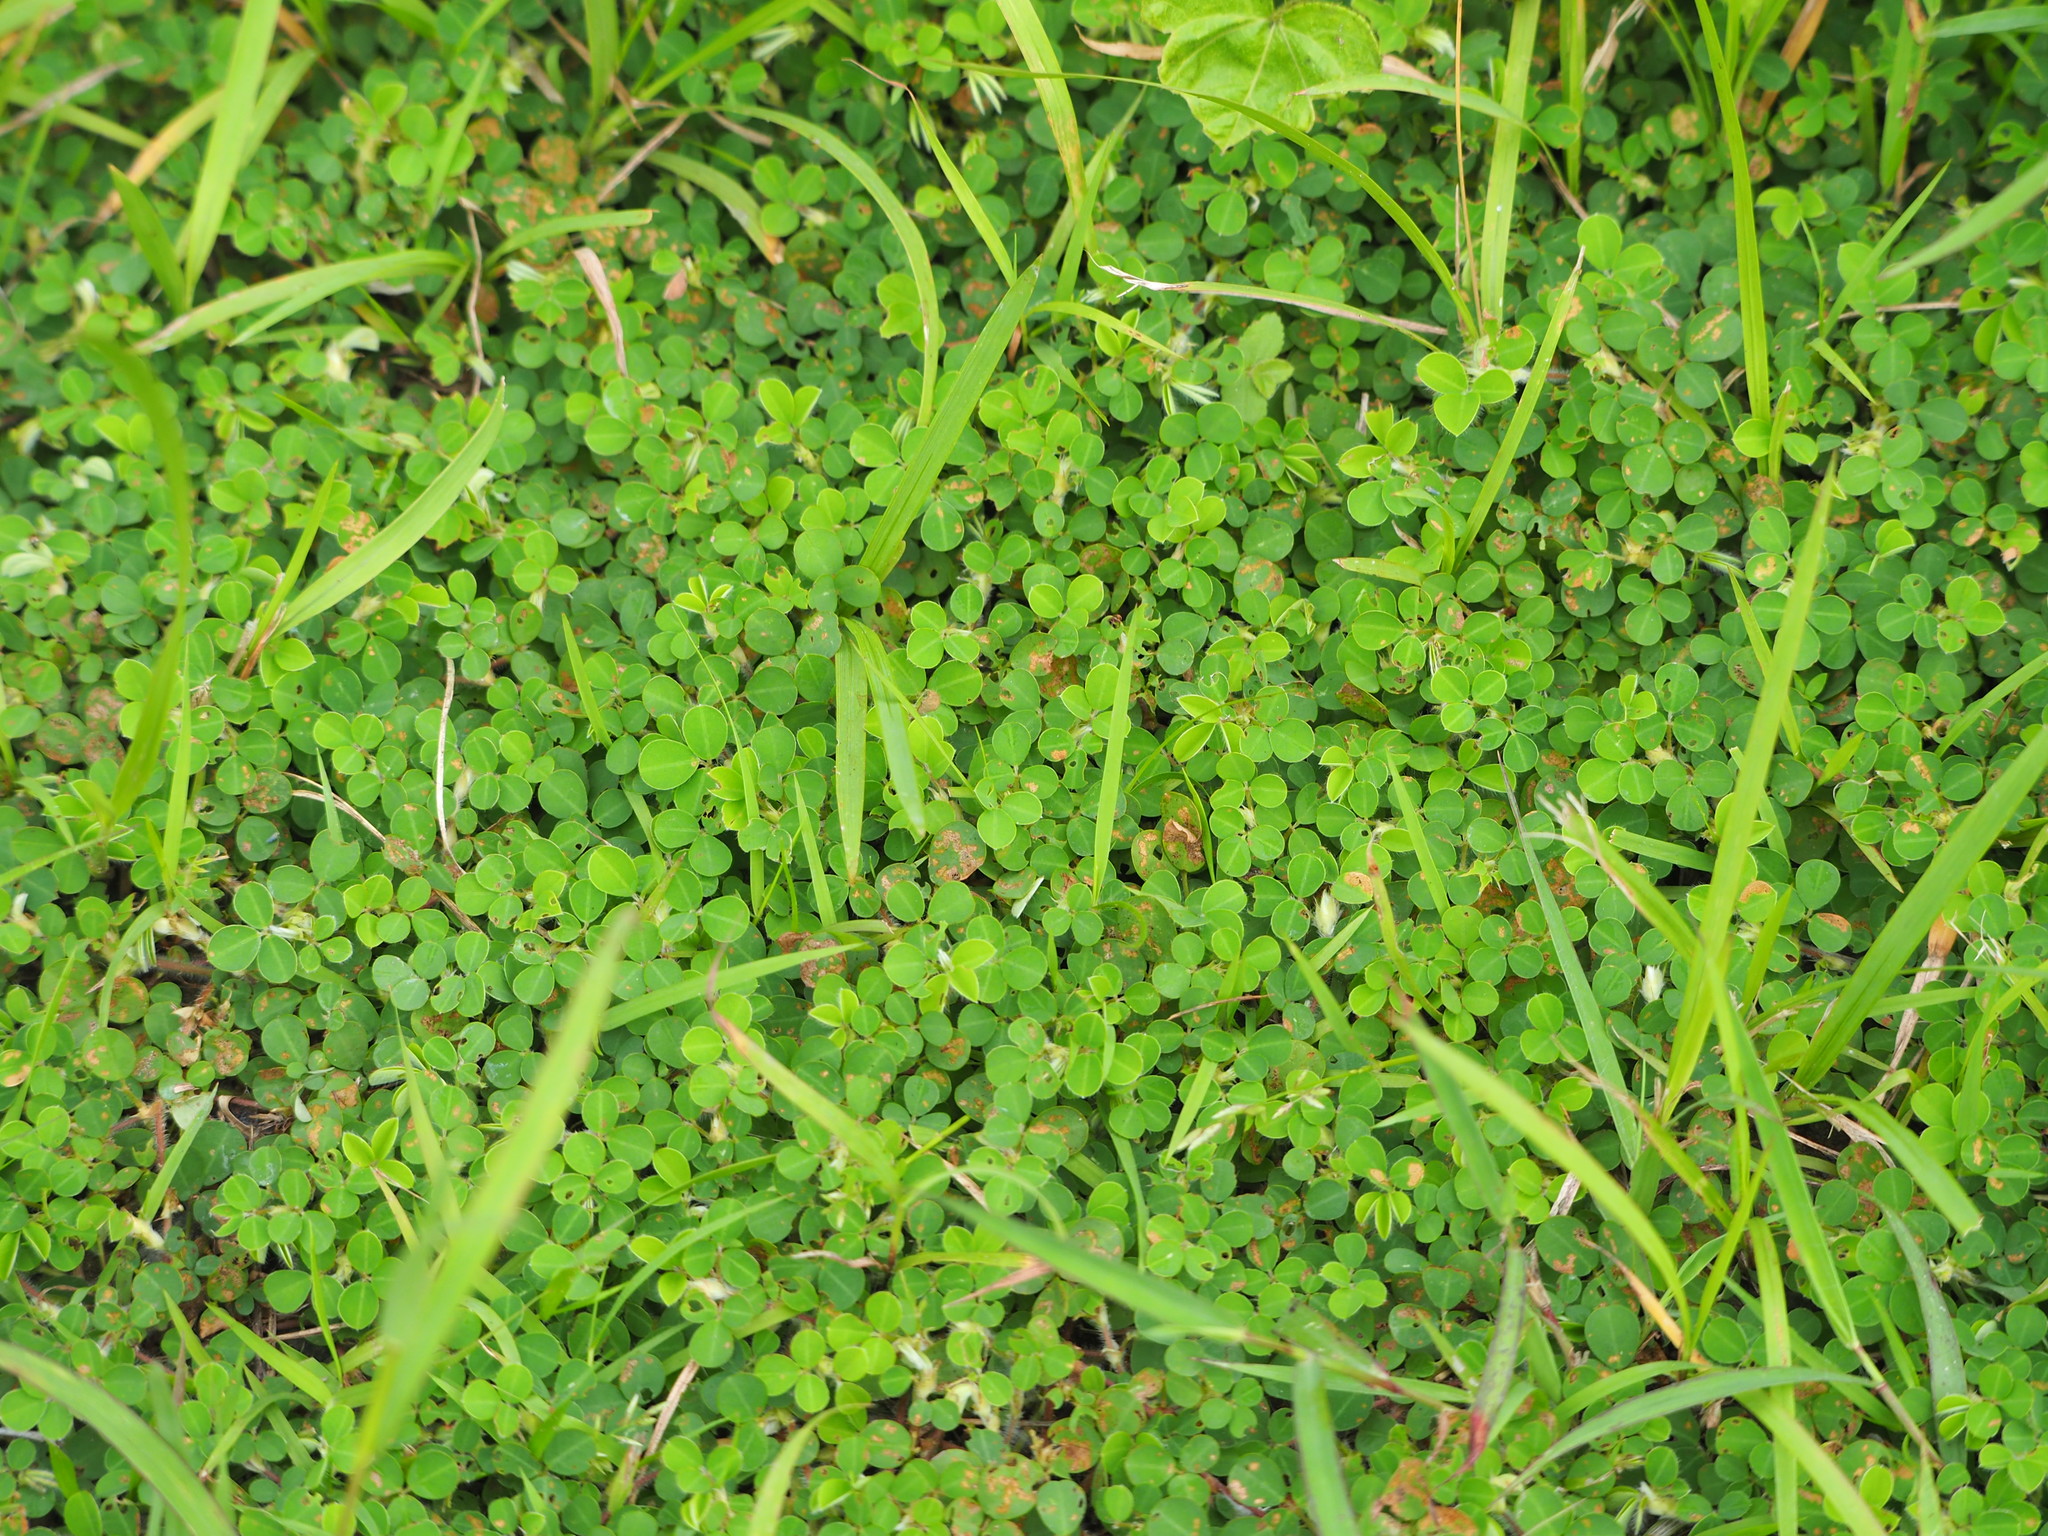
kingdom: Plantae
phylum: Tracheophyta
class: Magnoliopsida
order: Fabales
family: Fabaceae
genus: Grona
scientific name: Grona triflora
